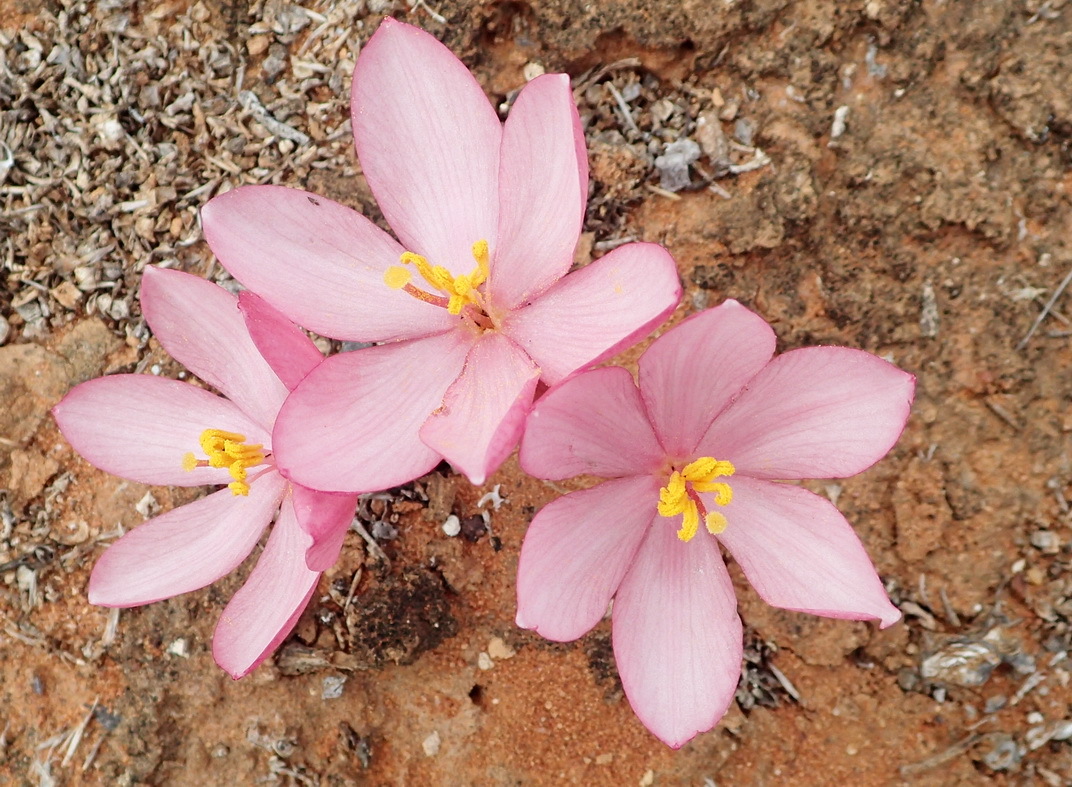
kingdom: Plantae
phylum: Tracheophyta
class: Liliopsida
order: Asparagales
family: Amaryllidaceae
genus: Gethyllis
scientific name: Gethyllis linearis
